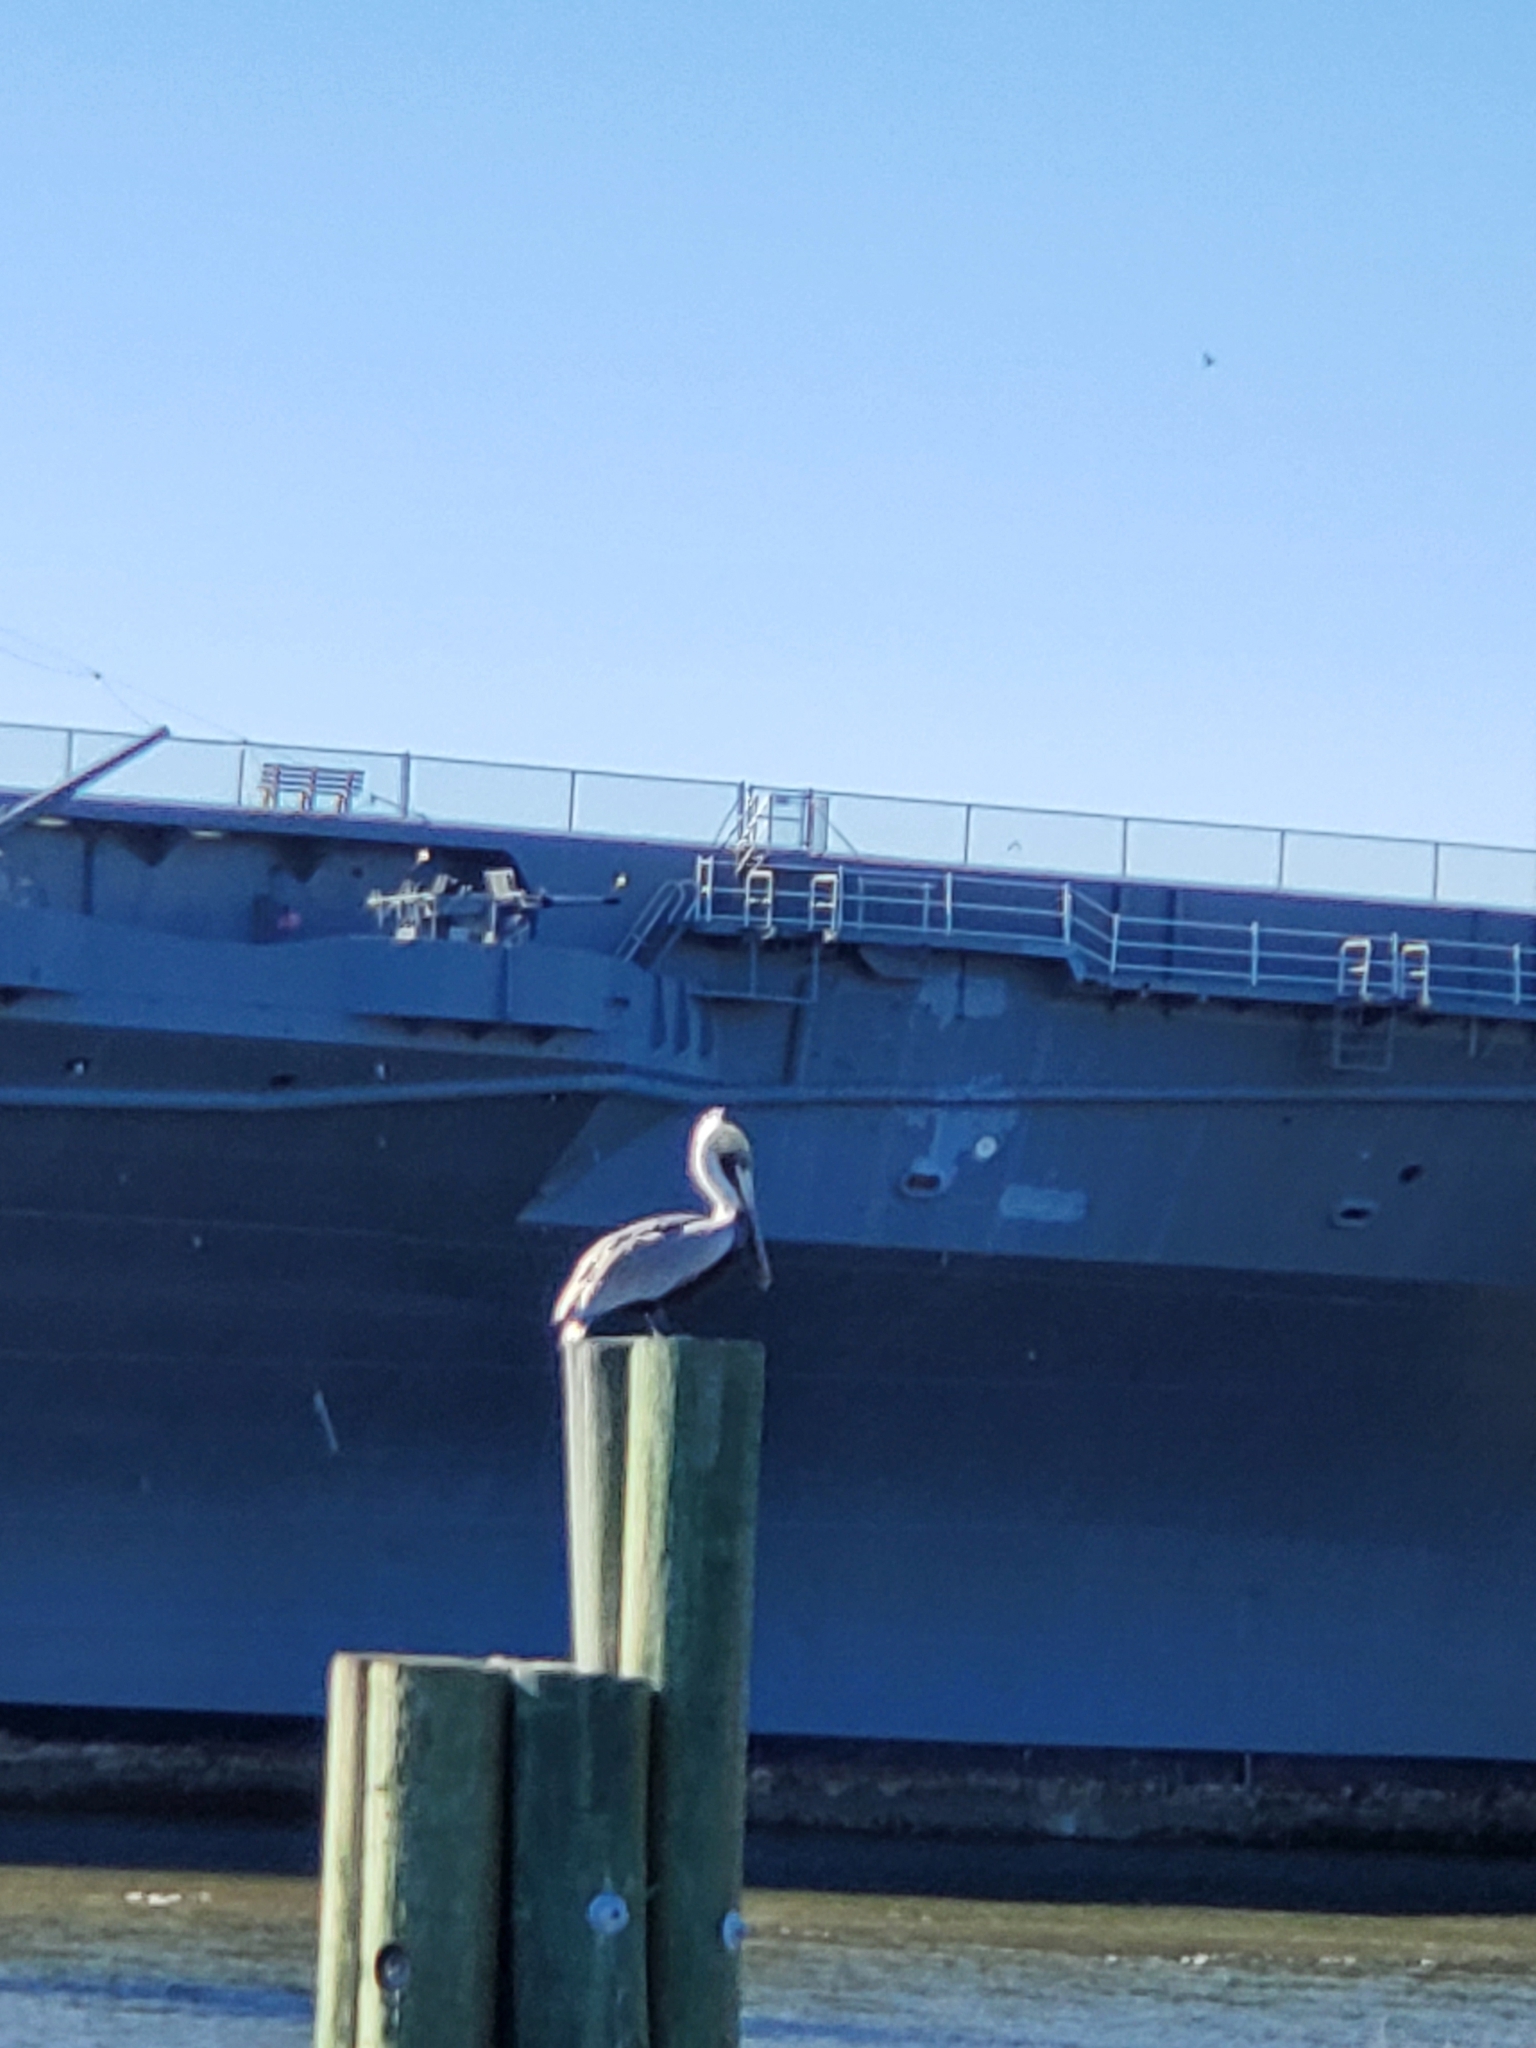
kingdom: Animalia
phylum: Chordata
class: Aves
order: Pelecaniformes
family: Pelecanidae
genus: Pelecanus
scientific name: Pelecanus occidentalis
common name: Brown pelican
